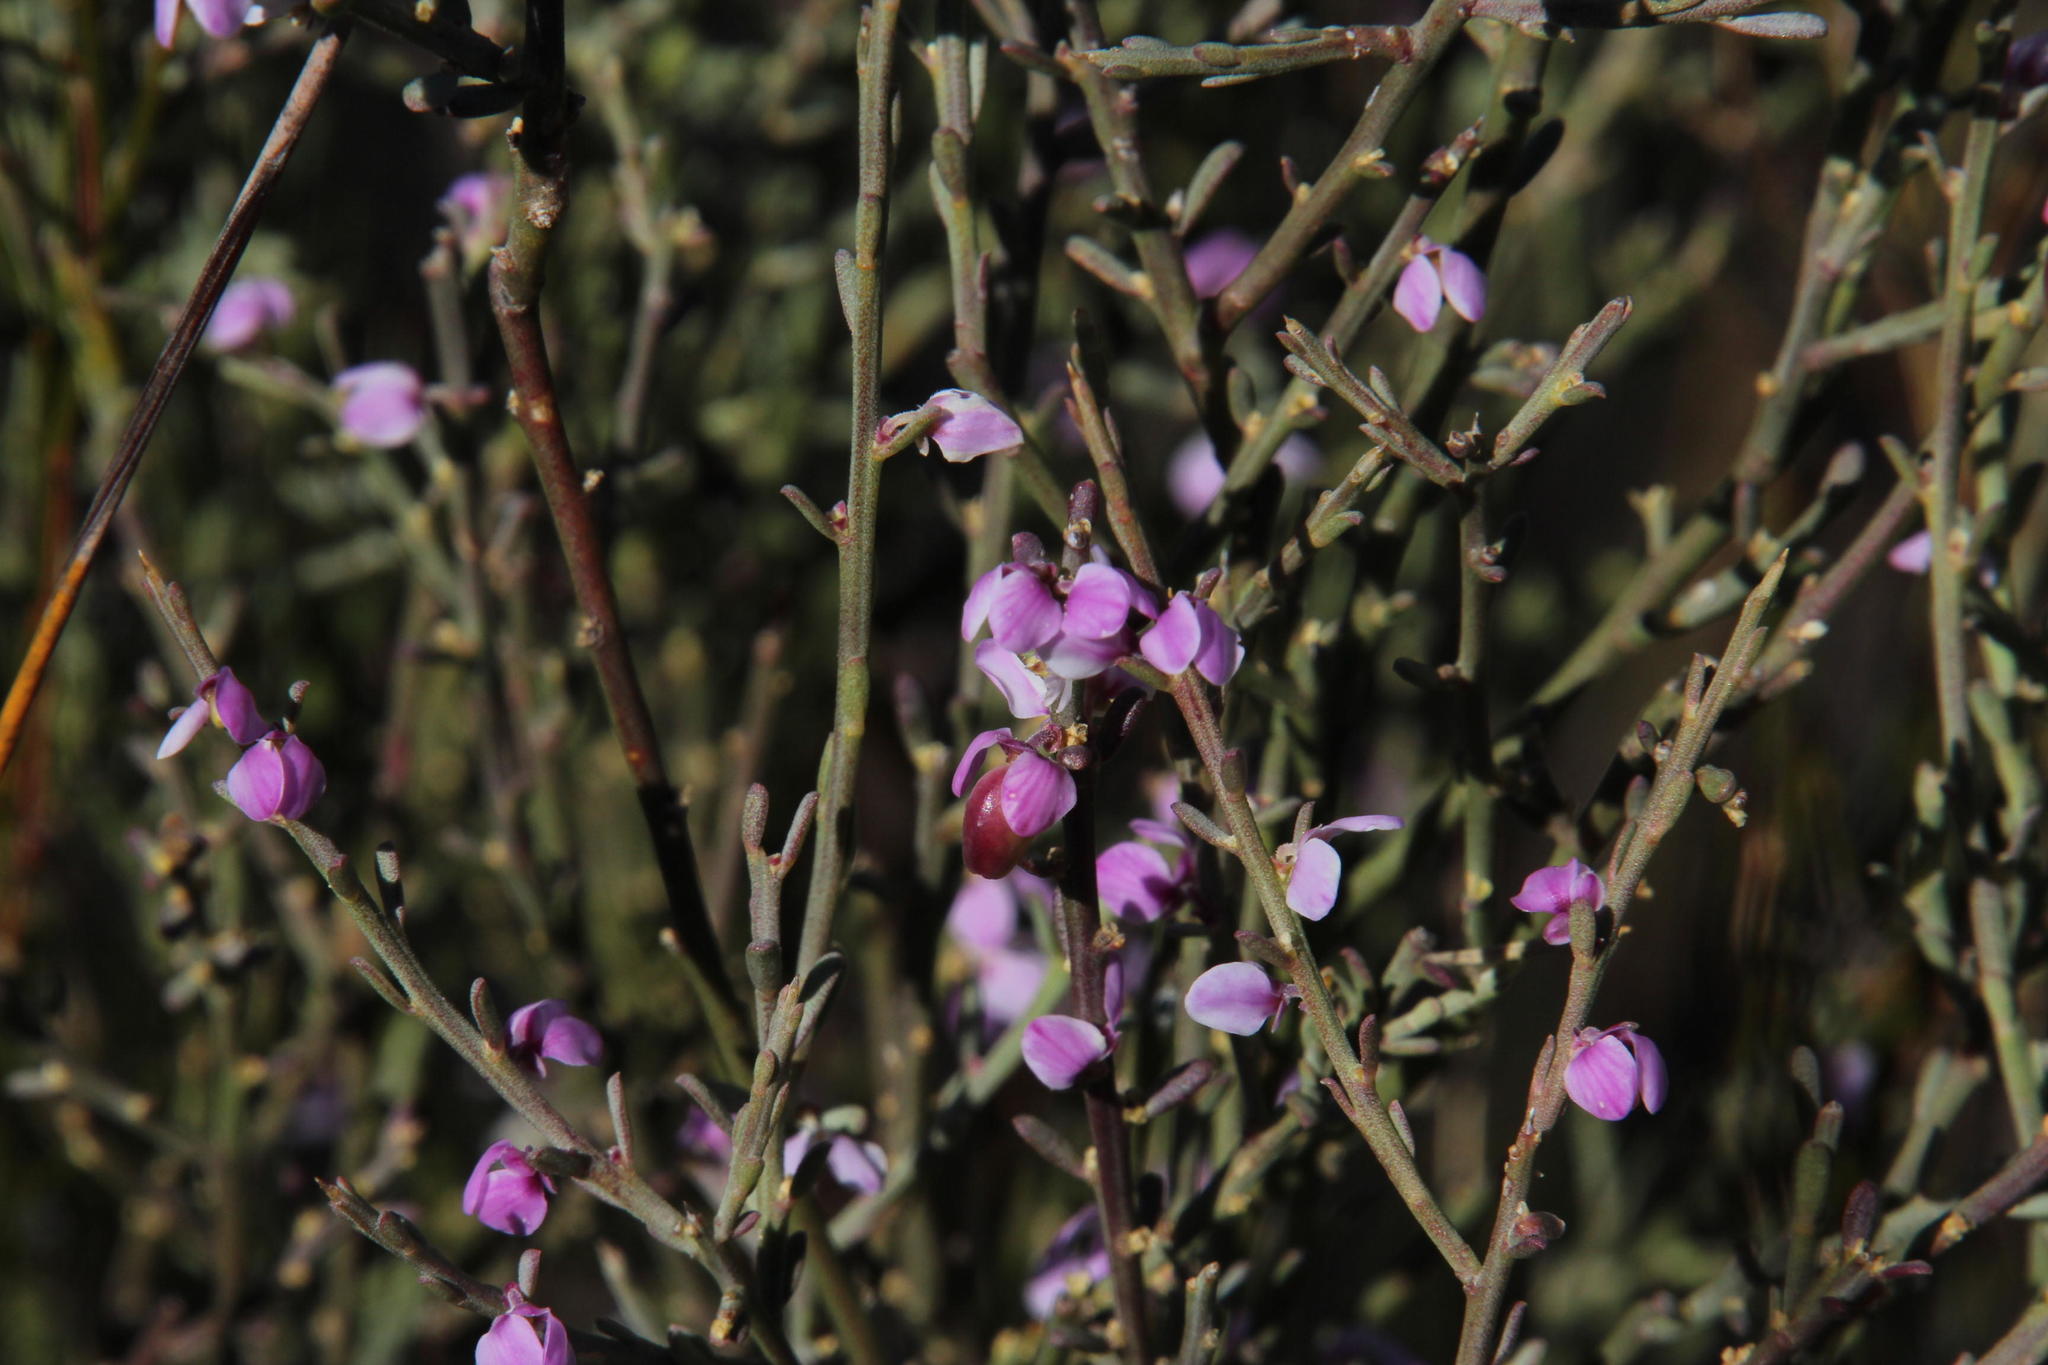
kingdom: Plantae
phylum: Tracheophyta
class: Magnoliopsida
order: Fabales
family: Polygalaceae
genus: Muraltia
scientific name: Muraltia spinosa
